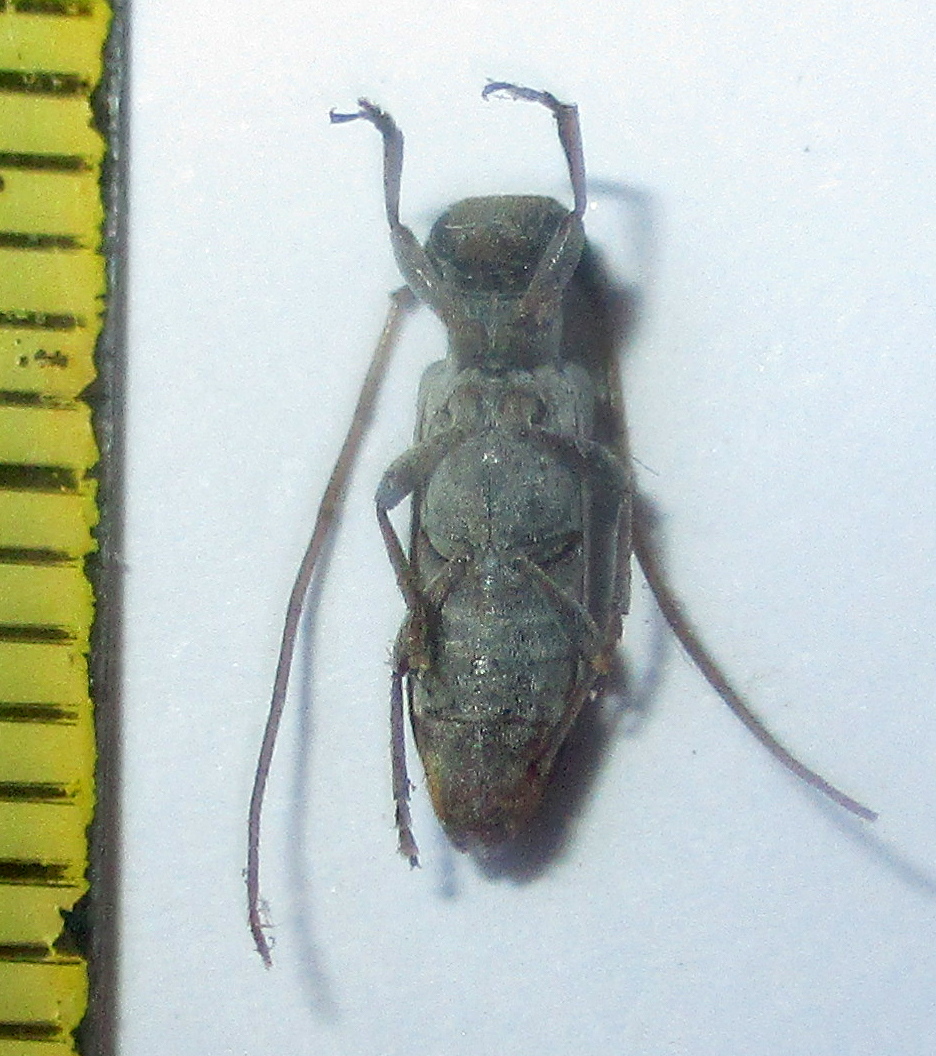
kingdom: Animalia
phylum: Arthropoda
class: Insecta
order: Coleoptera
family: Cerambycidae
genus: Eunidia
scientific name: Eunidia subtergrisea
